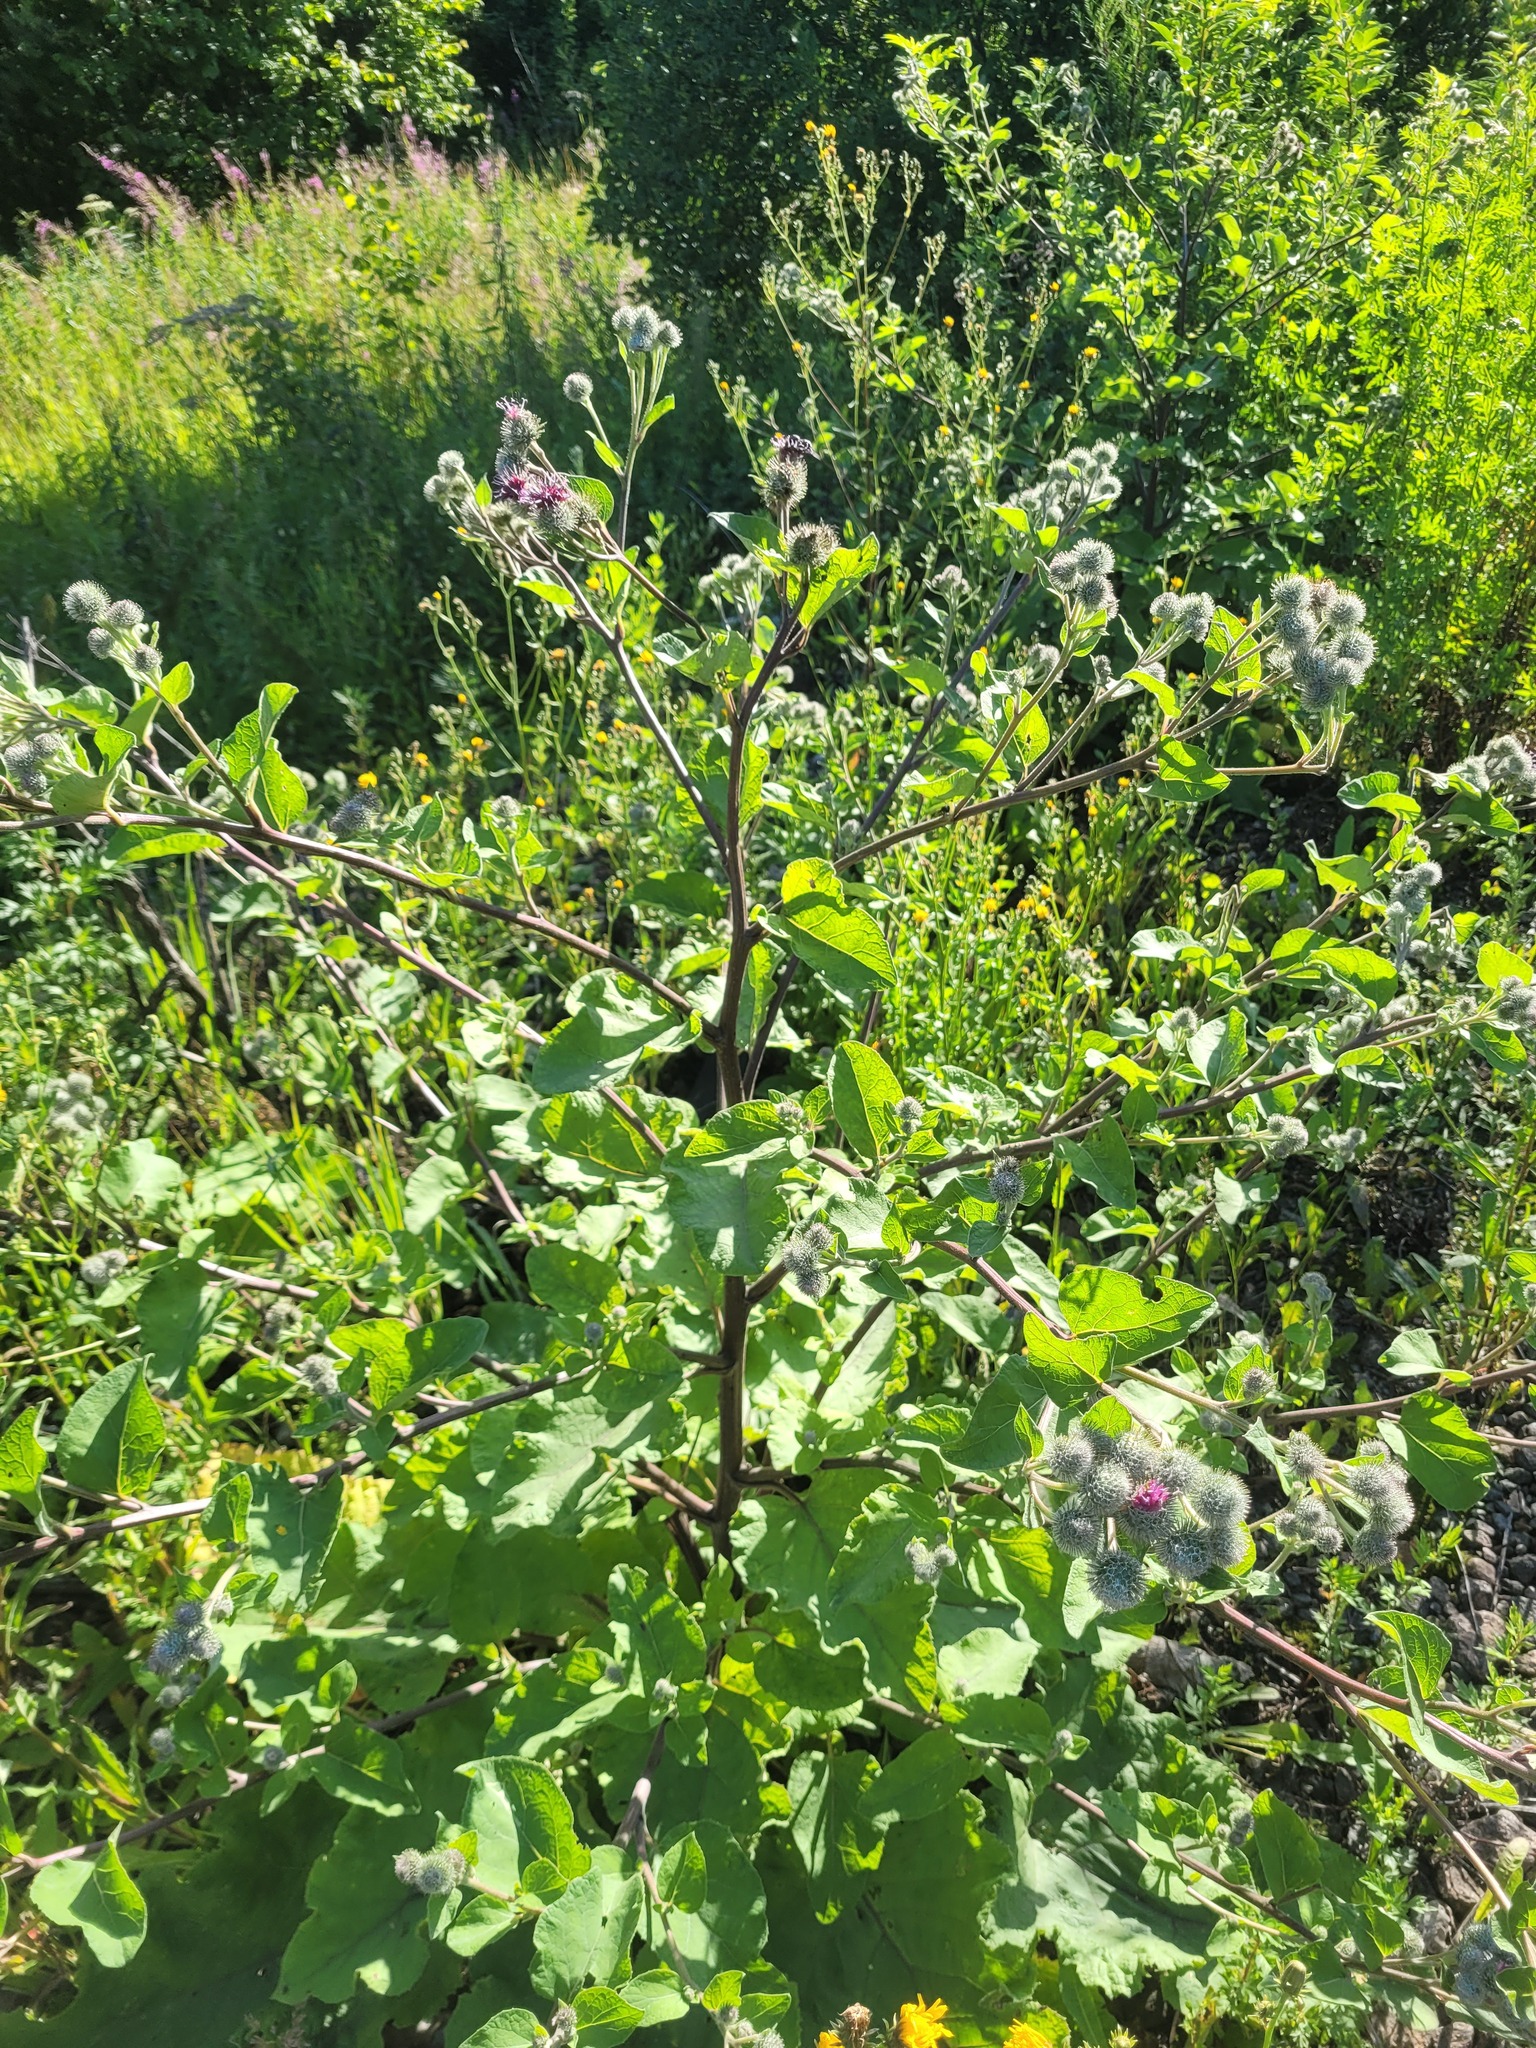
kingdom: Plantae
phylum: Tracheophyta
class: Magnoliopsida
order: Asterales
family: Asteraceae
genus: Arctium
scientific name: Arctium tomentosum
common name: Woolly burdock
